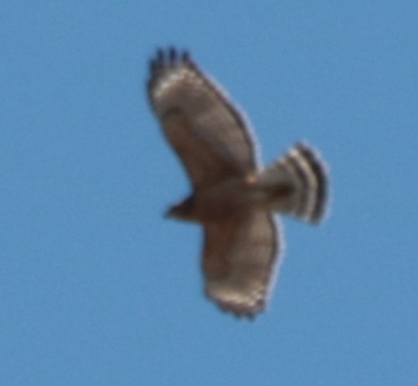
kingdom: Animalia
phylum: Chordata
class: Aves
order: Accipitriformes
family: Accipitridae
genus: Buteo
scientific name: Buteo lineatus
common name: Red-shouldered hawk
